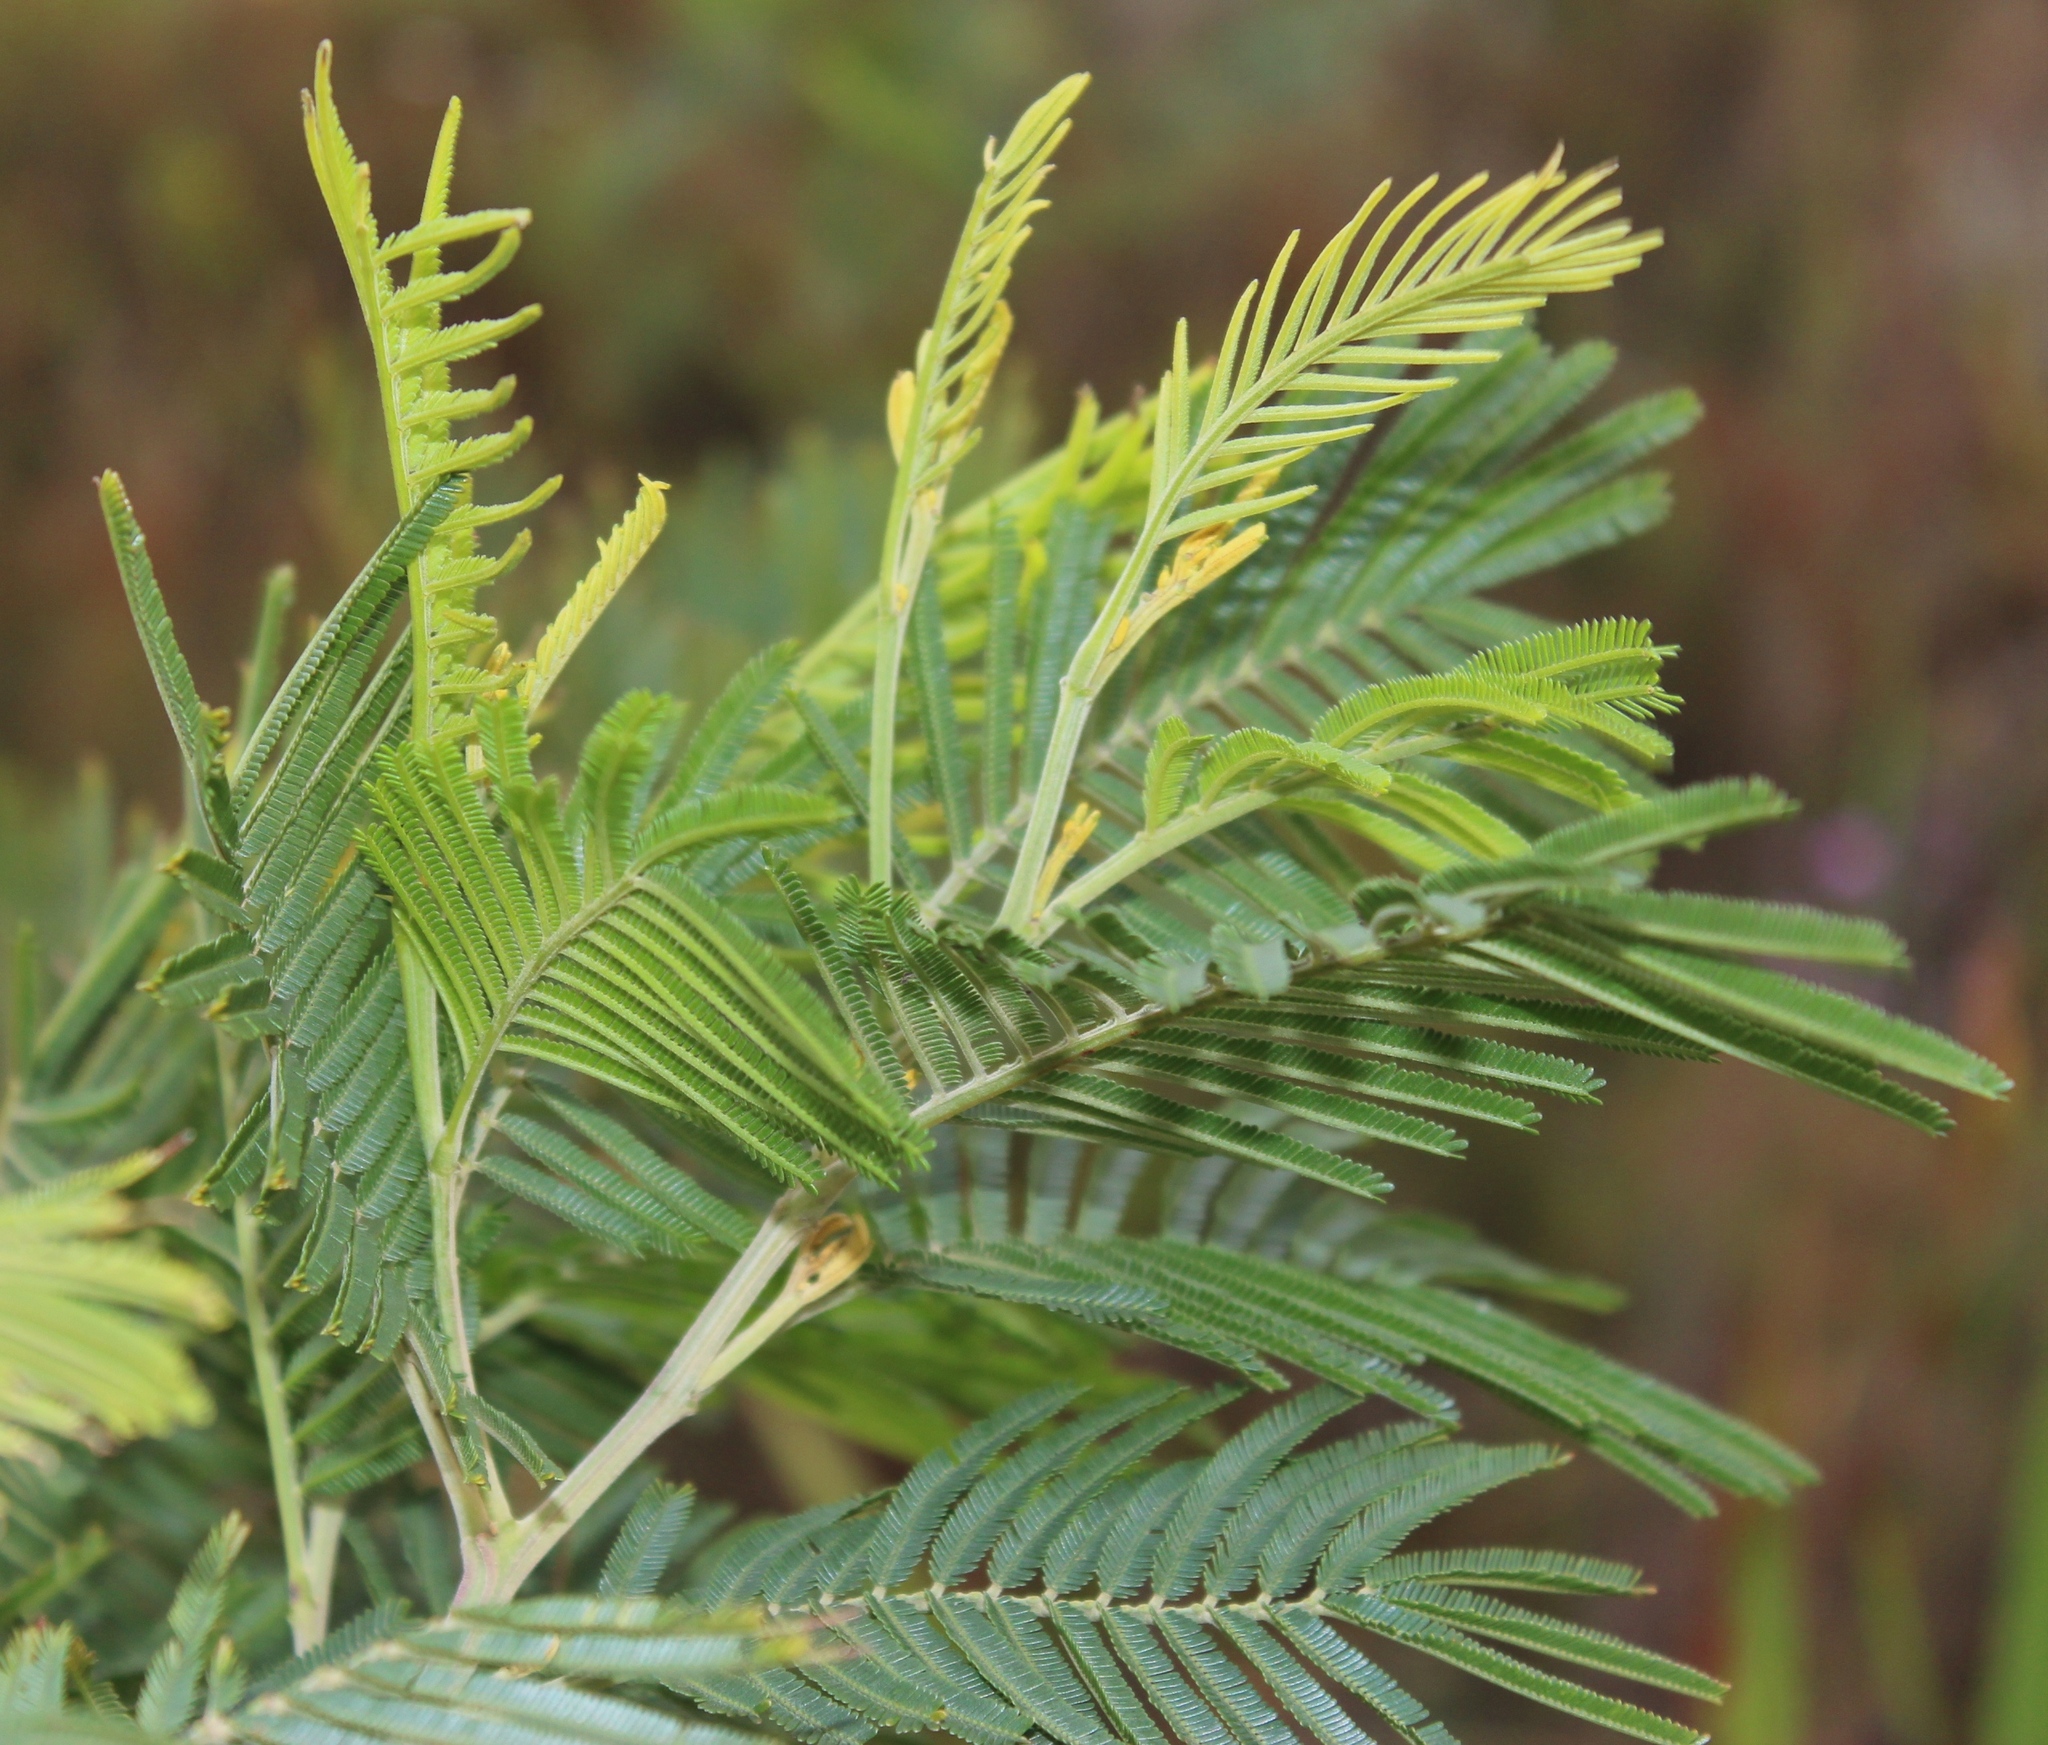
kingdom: Plantae
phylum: Tracheophyta
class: Magnoliopsida
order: Fabales
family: Fabaceae
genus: Acacia
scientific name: Acacia mearnsii
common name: Black wattle
